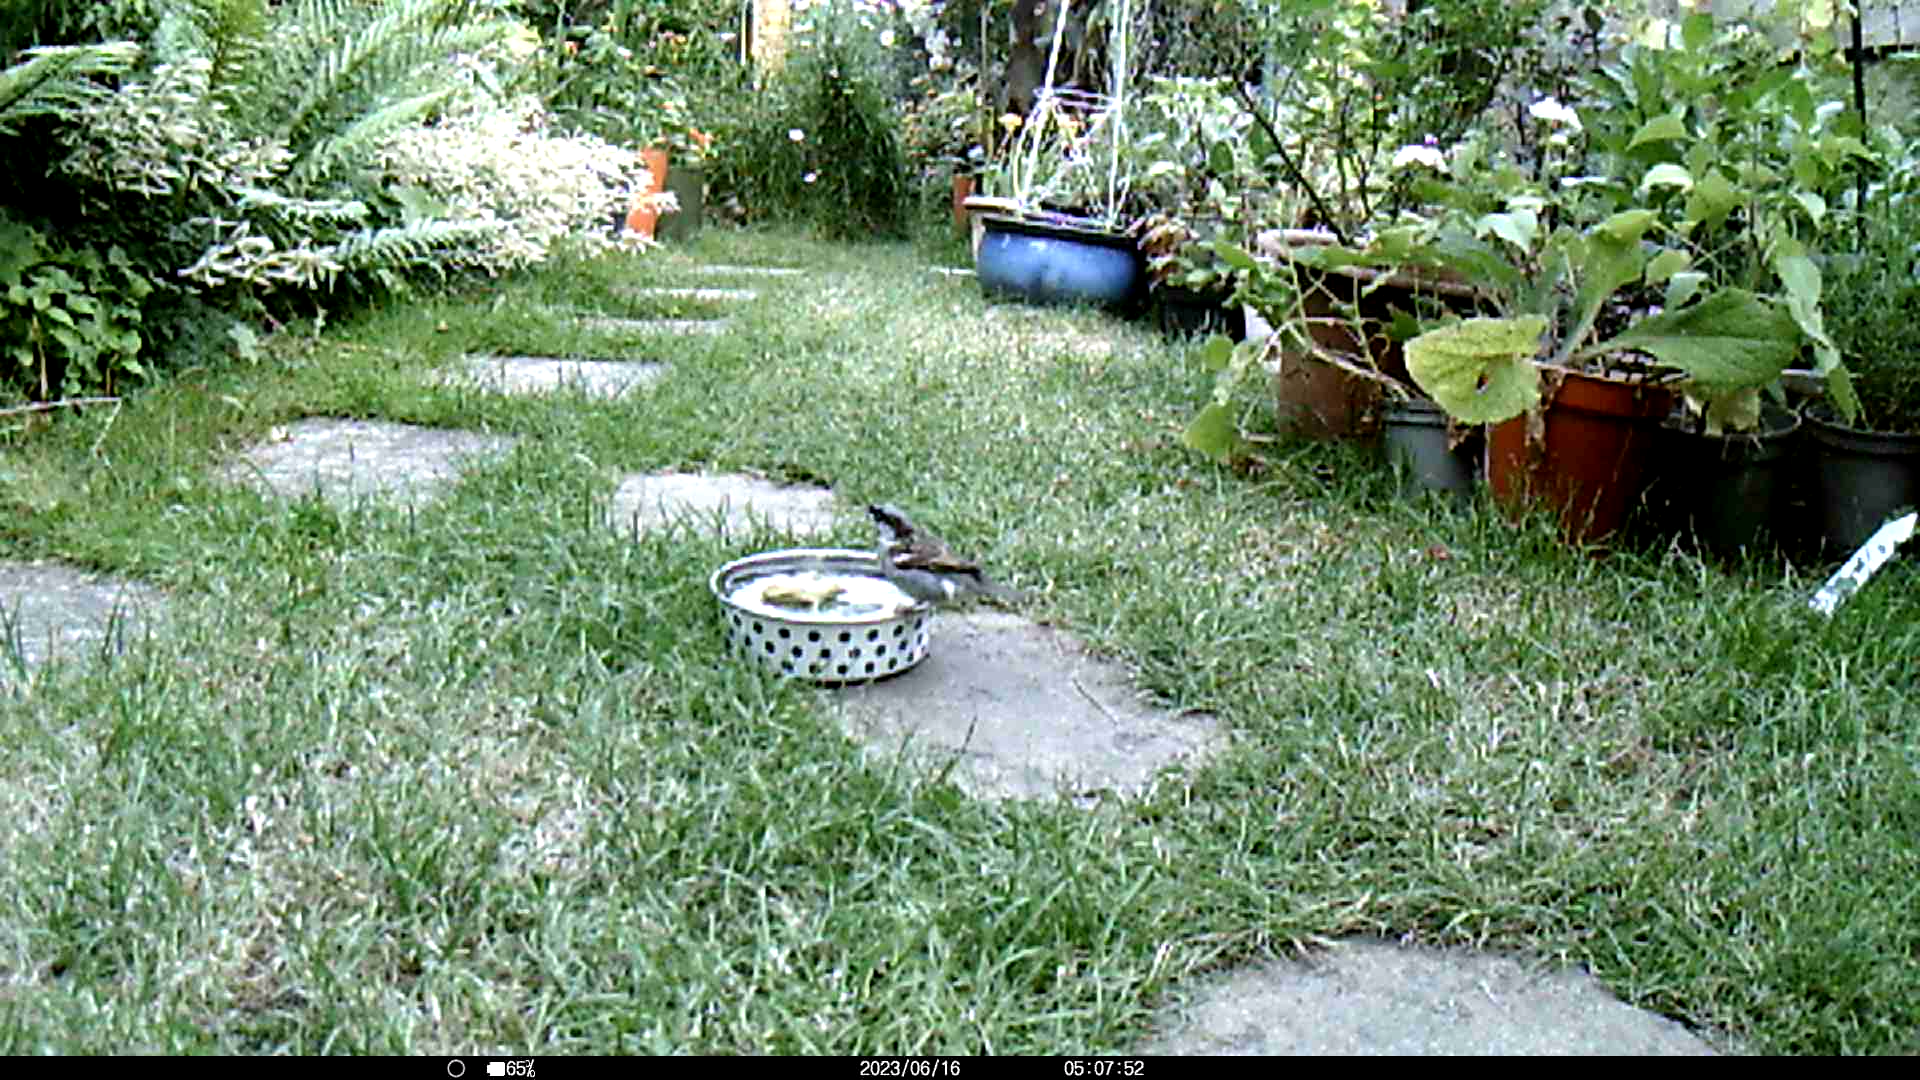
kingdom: Animalia
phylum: Chordata
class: Aves
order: Passeriformes
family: Passeridae
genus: Passer
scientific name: Passer domesticus
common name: House sparrow
